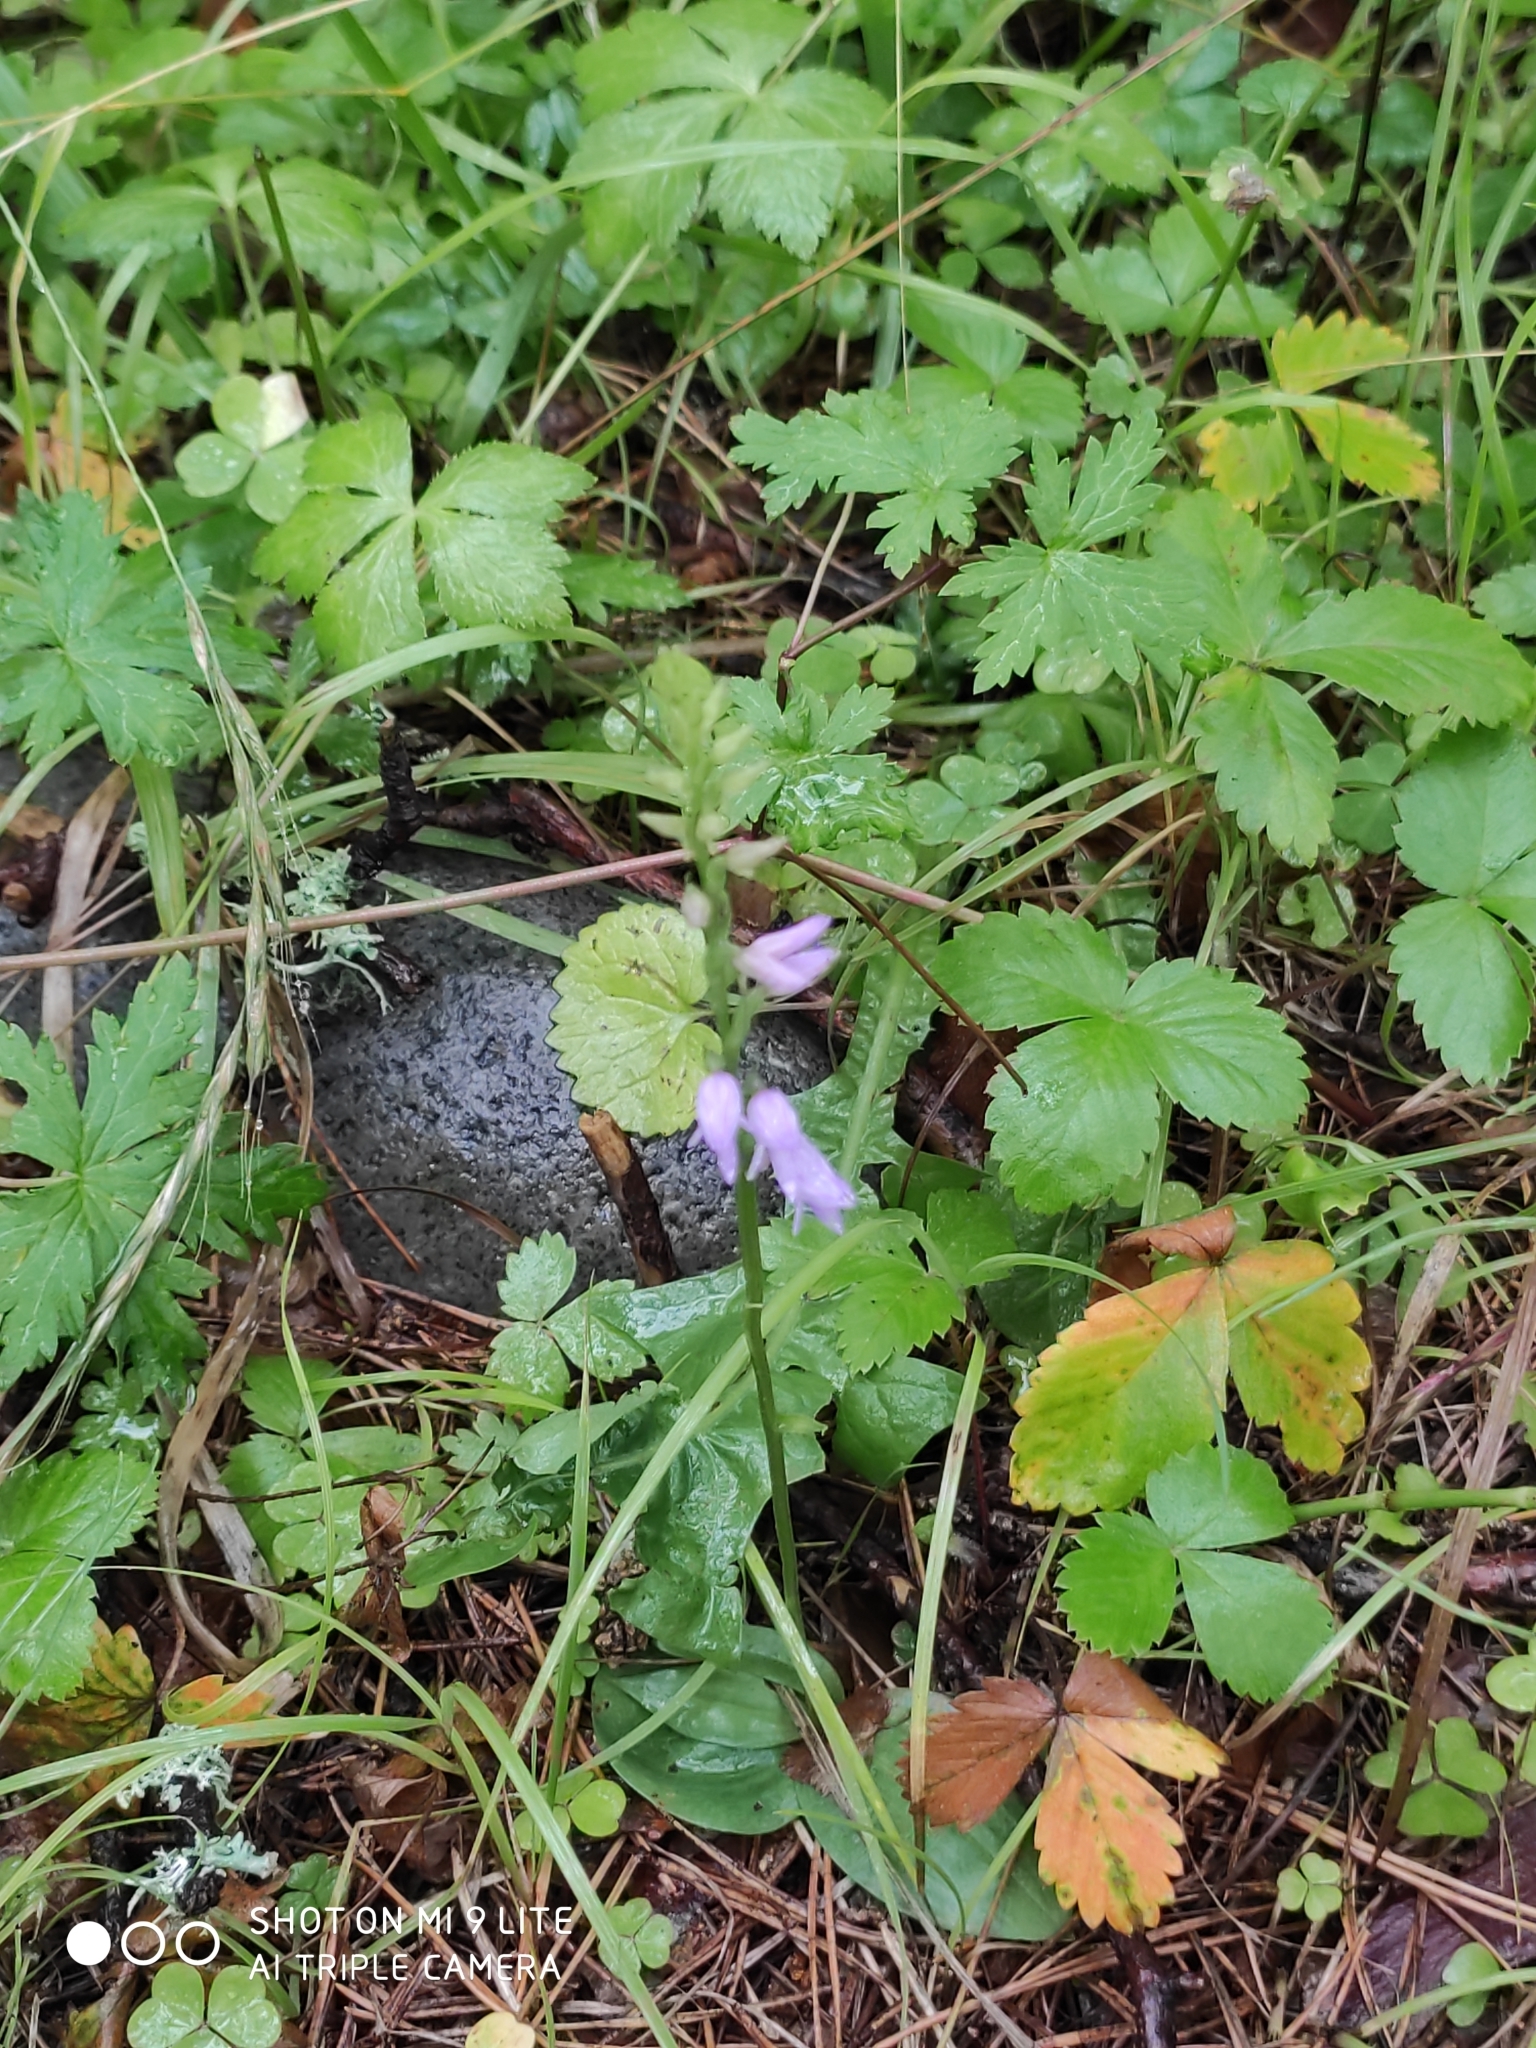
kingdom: Plantae
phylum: Tracheophyta
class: Liliopsida
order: Asparagales
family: Orchidaceae
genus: Hemipilia
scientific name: Hemipilia cucullata
